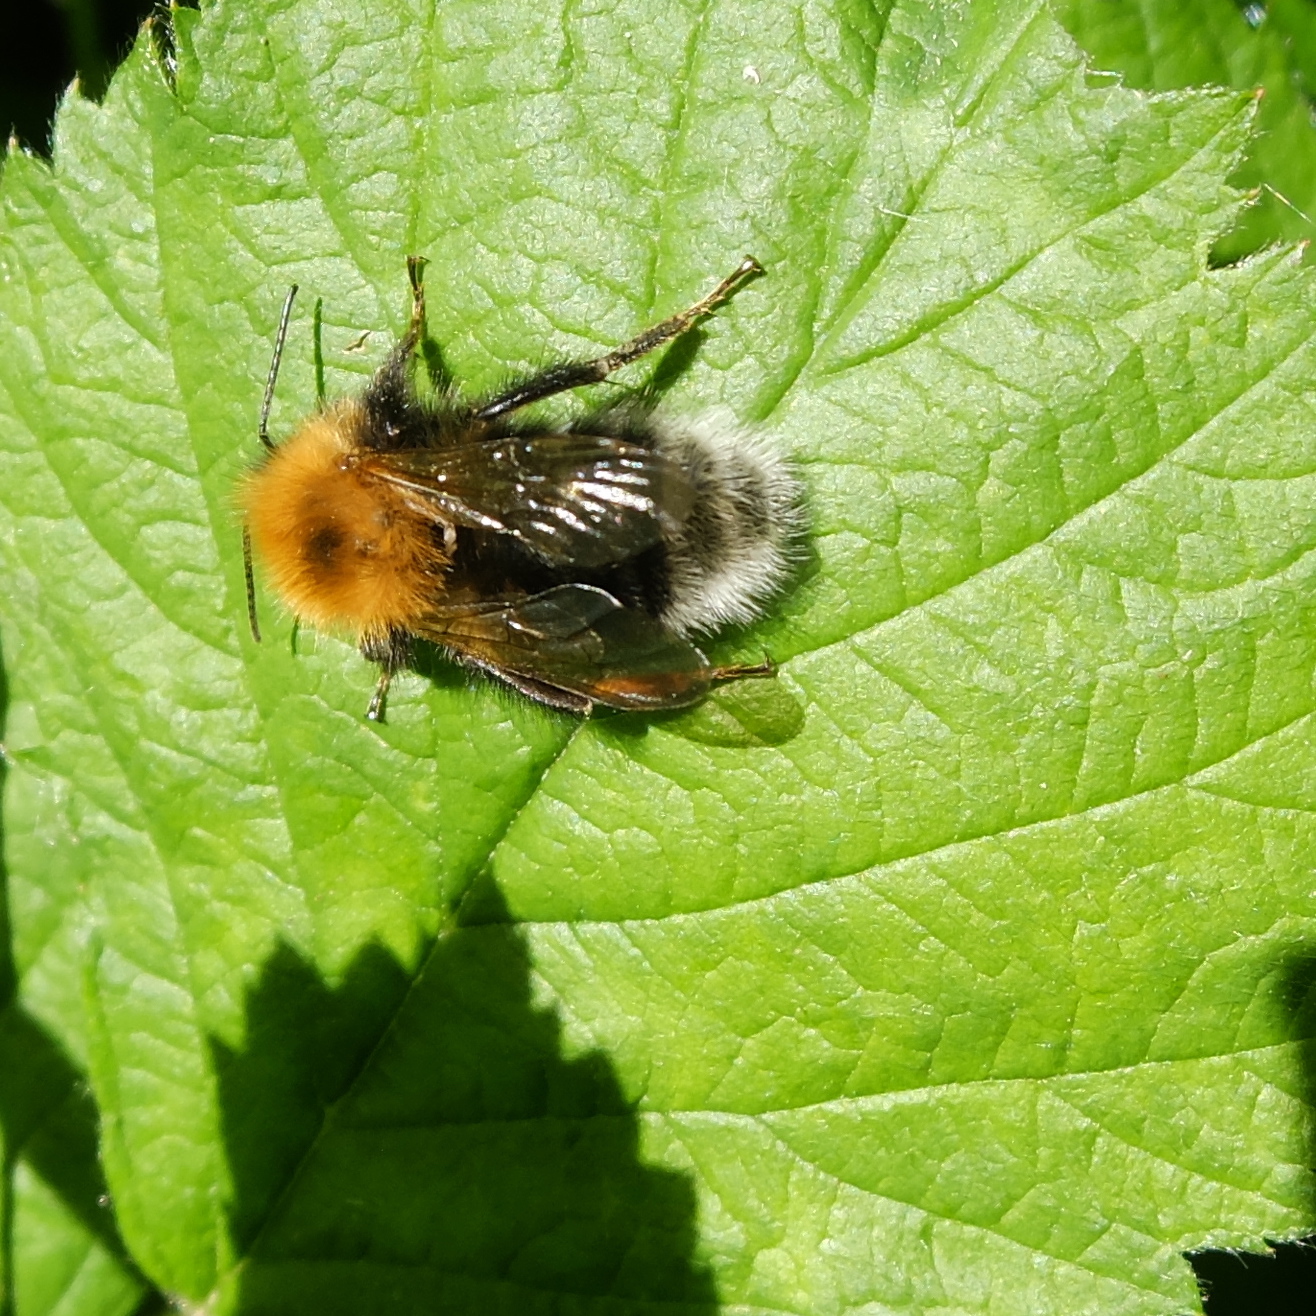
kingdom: Animalia
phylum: Arthropoda
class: Insecta
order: Hymenoptera
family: Apidae
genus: Bombus
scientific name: Bombus hypnorum
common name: New garden bumblebee
